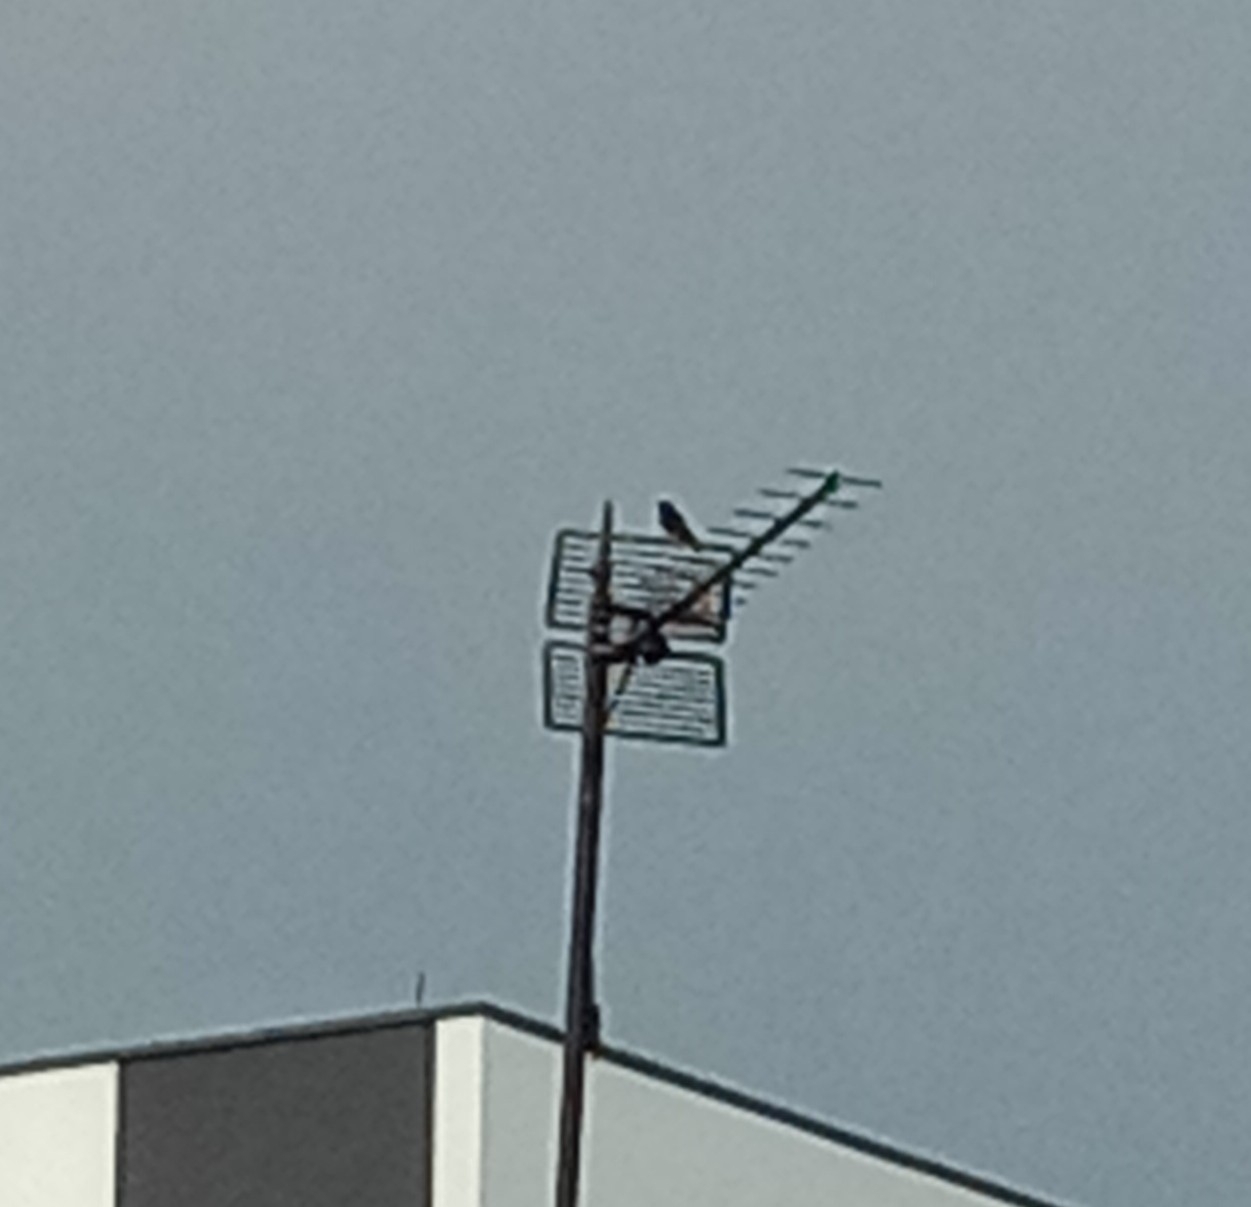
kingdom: Animalia
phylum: Chordata
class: Aves
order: Passeriformes
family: Muscicapidae
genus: Phoenicurus
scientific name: Phoenicurus ochruros
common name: Black redstart
